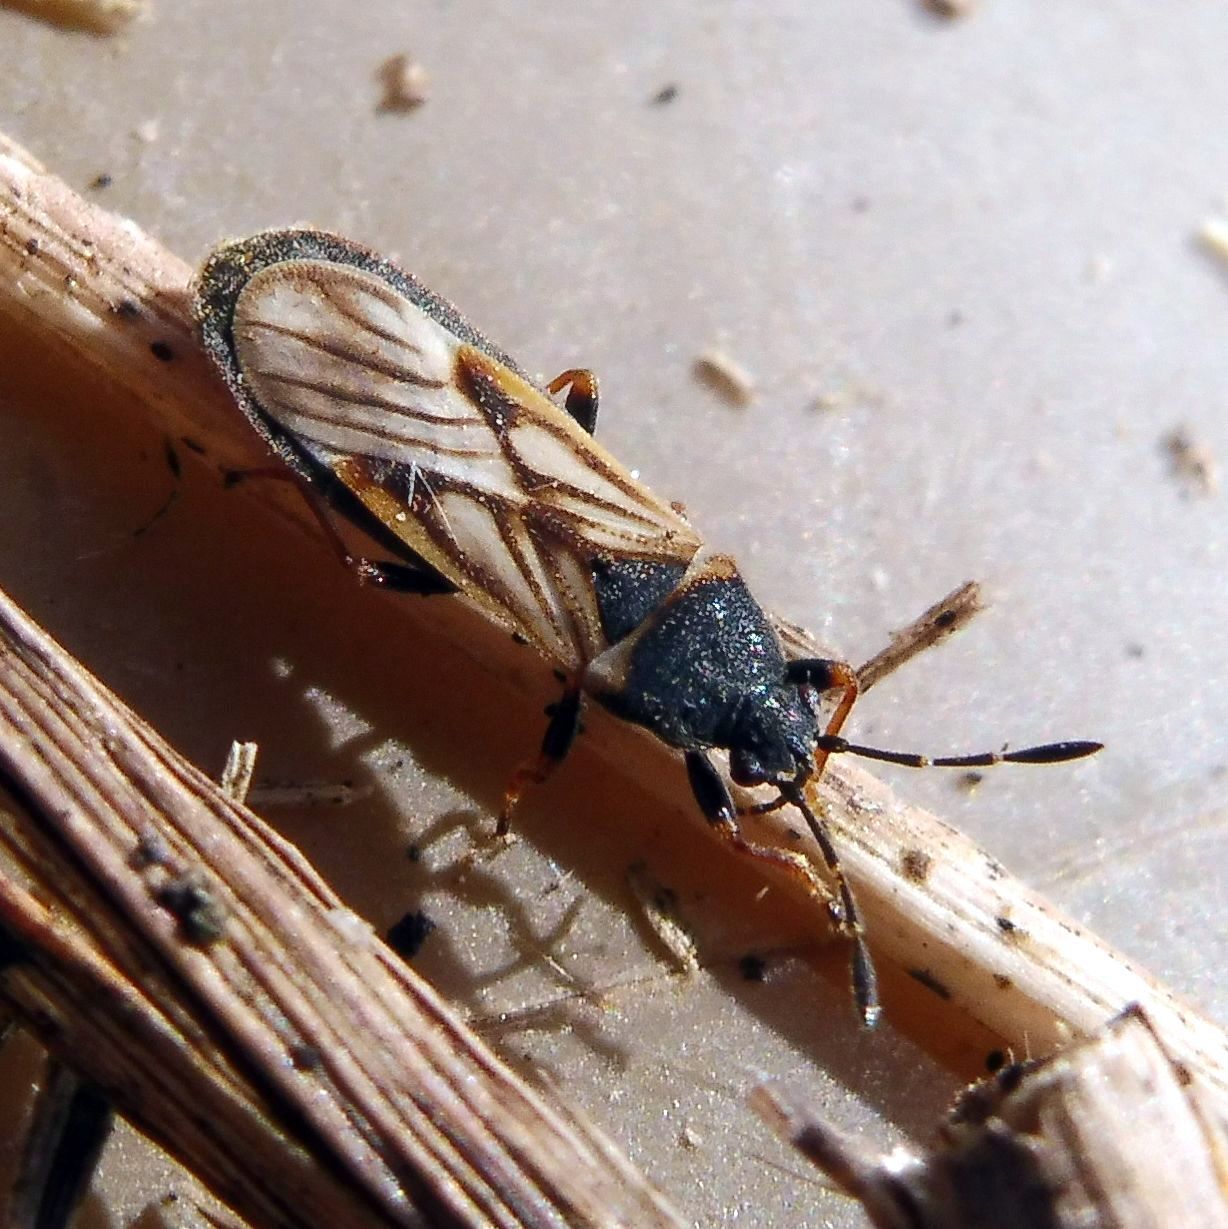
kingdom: Animalia
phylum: Arthropoda
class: Insecta
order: Hemiptera
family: Blissidae
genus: Ischnodemus
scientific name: Ischnodemus sabuleti
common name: European cinchbug
